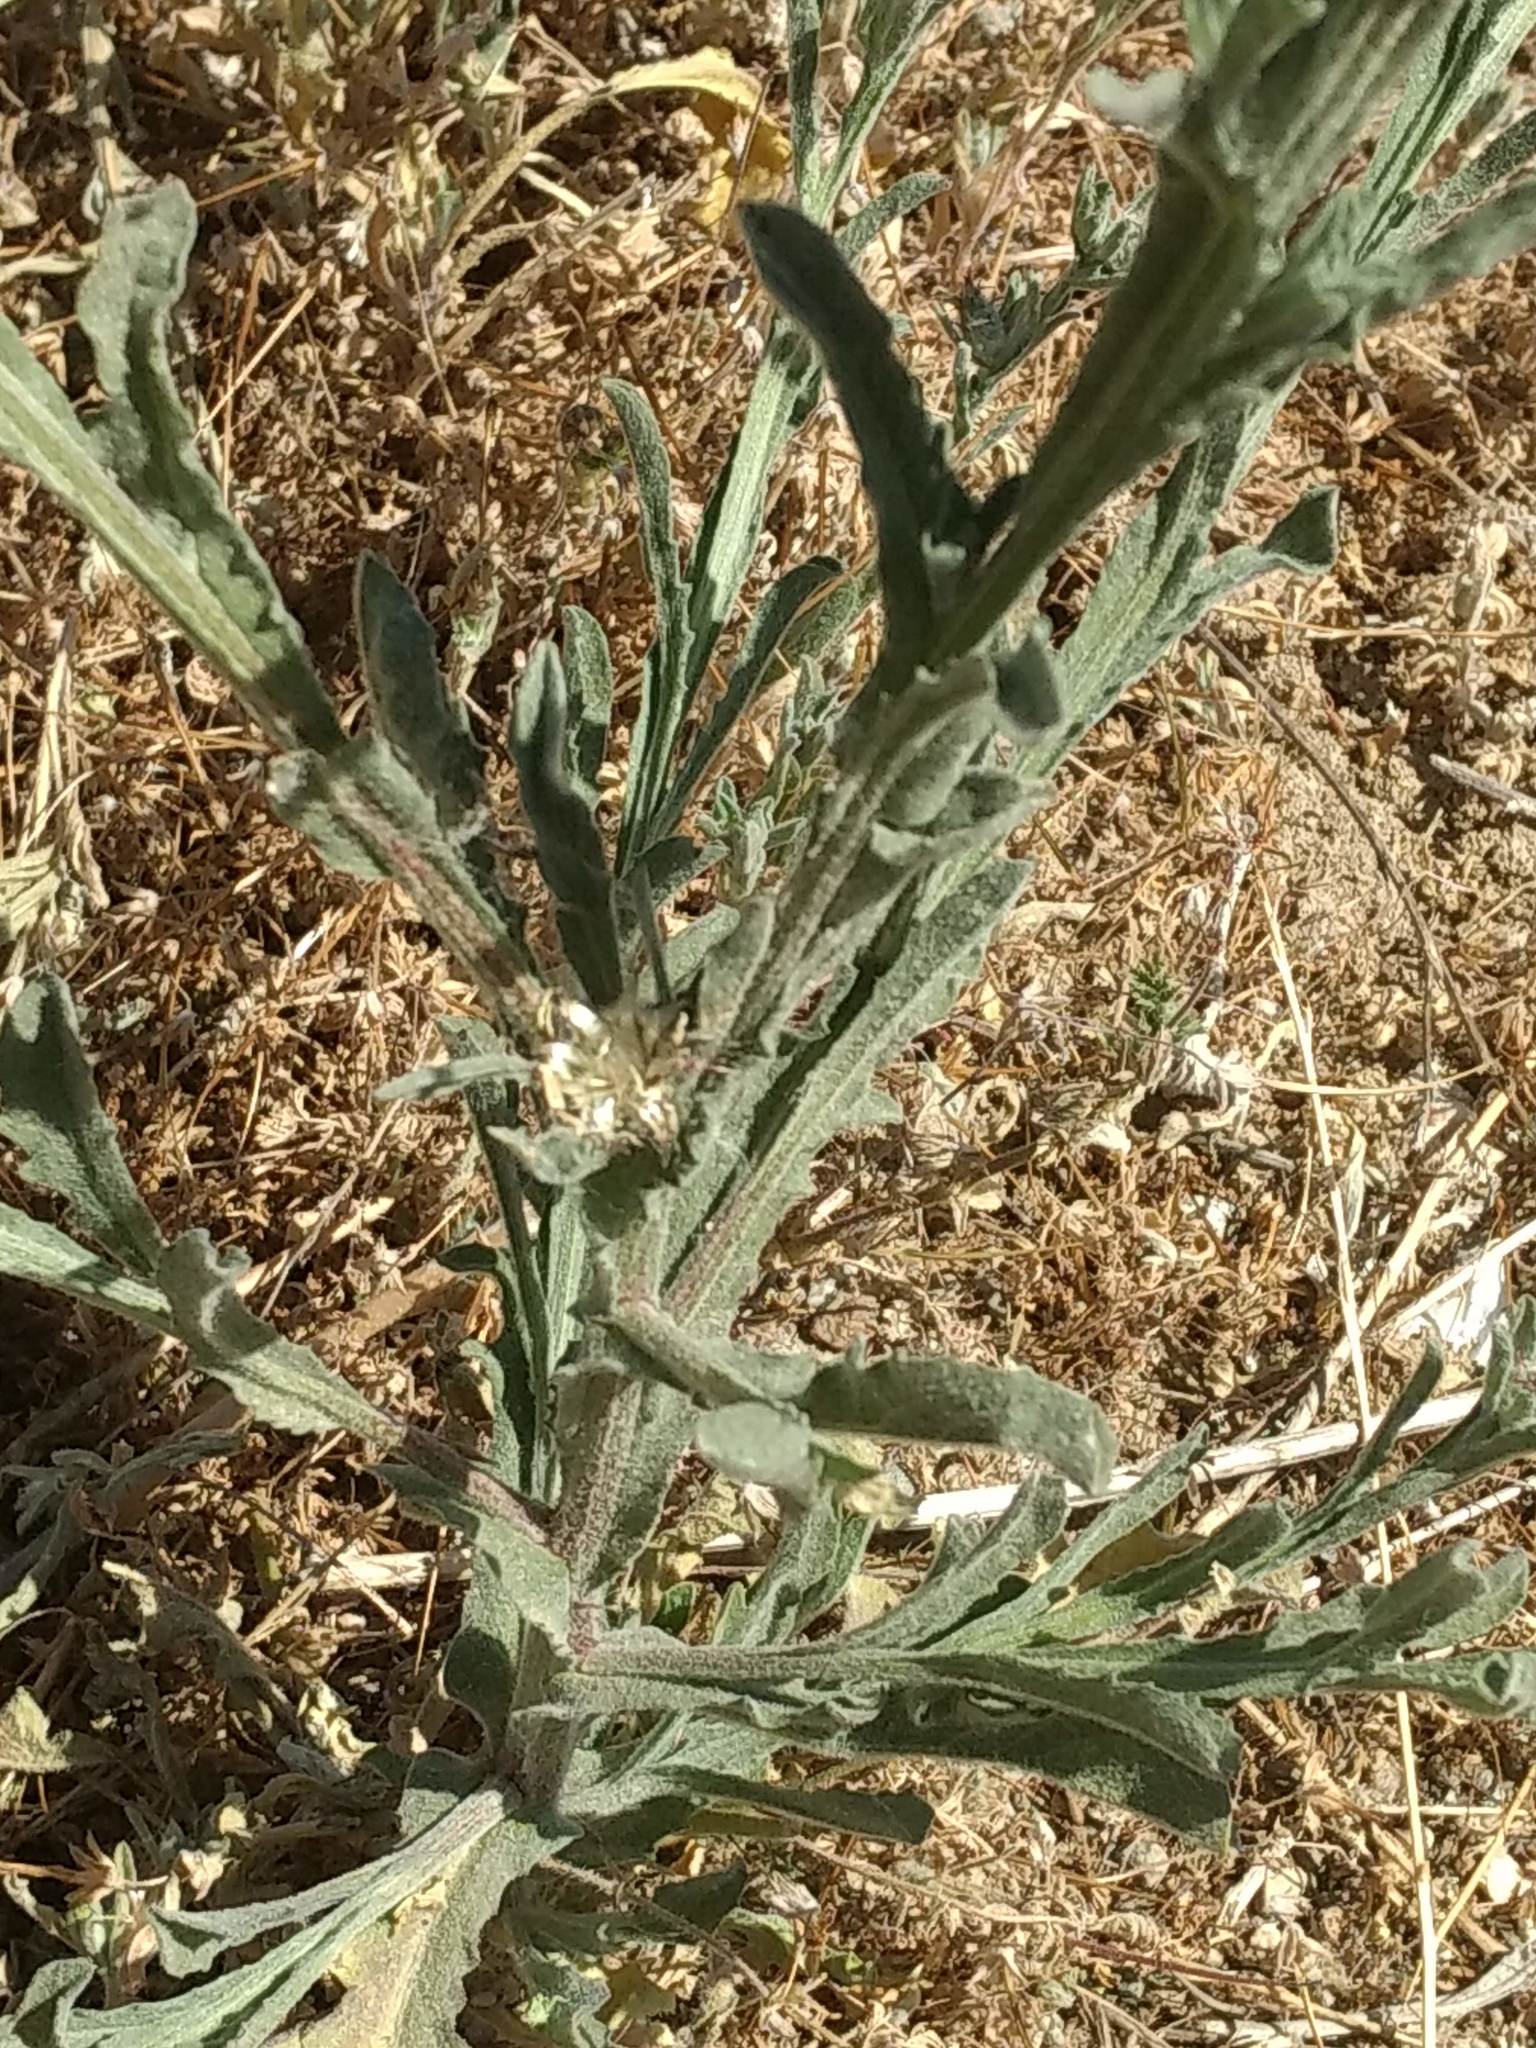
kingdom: Plantae
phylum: Tracheophyta
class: Magnoliopsida
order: Asterales
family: Asteraceae
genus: Centaurea
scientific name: Centaurea melitensis
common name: Maltese star-thistle
